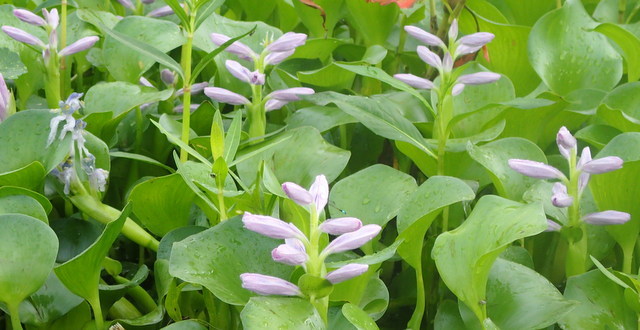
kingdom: Plantae
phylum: Tracheophyta
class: Liliopsida
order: Commelinales
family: Pontederiaceae
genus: Pontederia
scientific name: Pontederia crassipes
